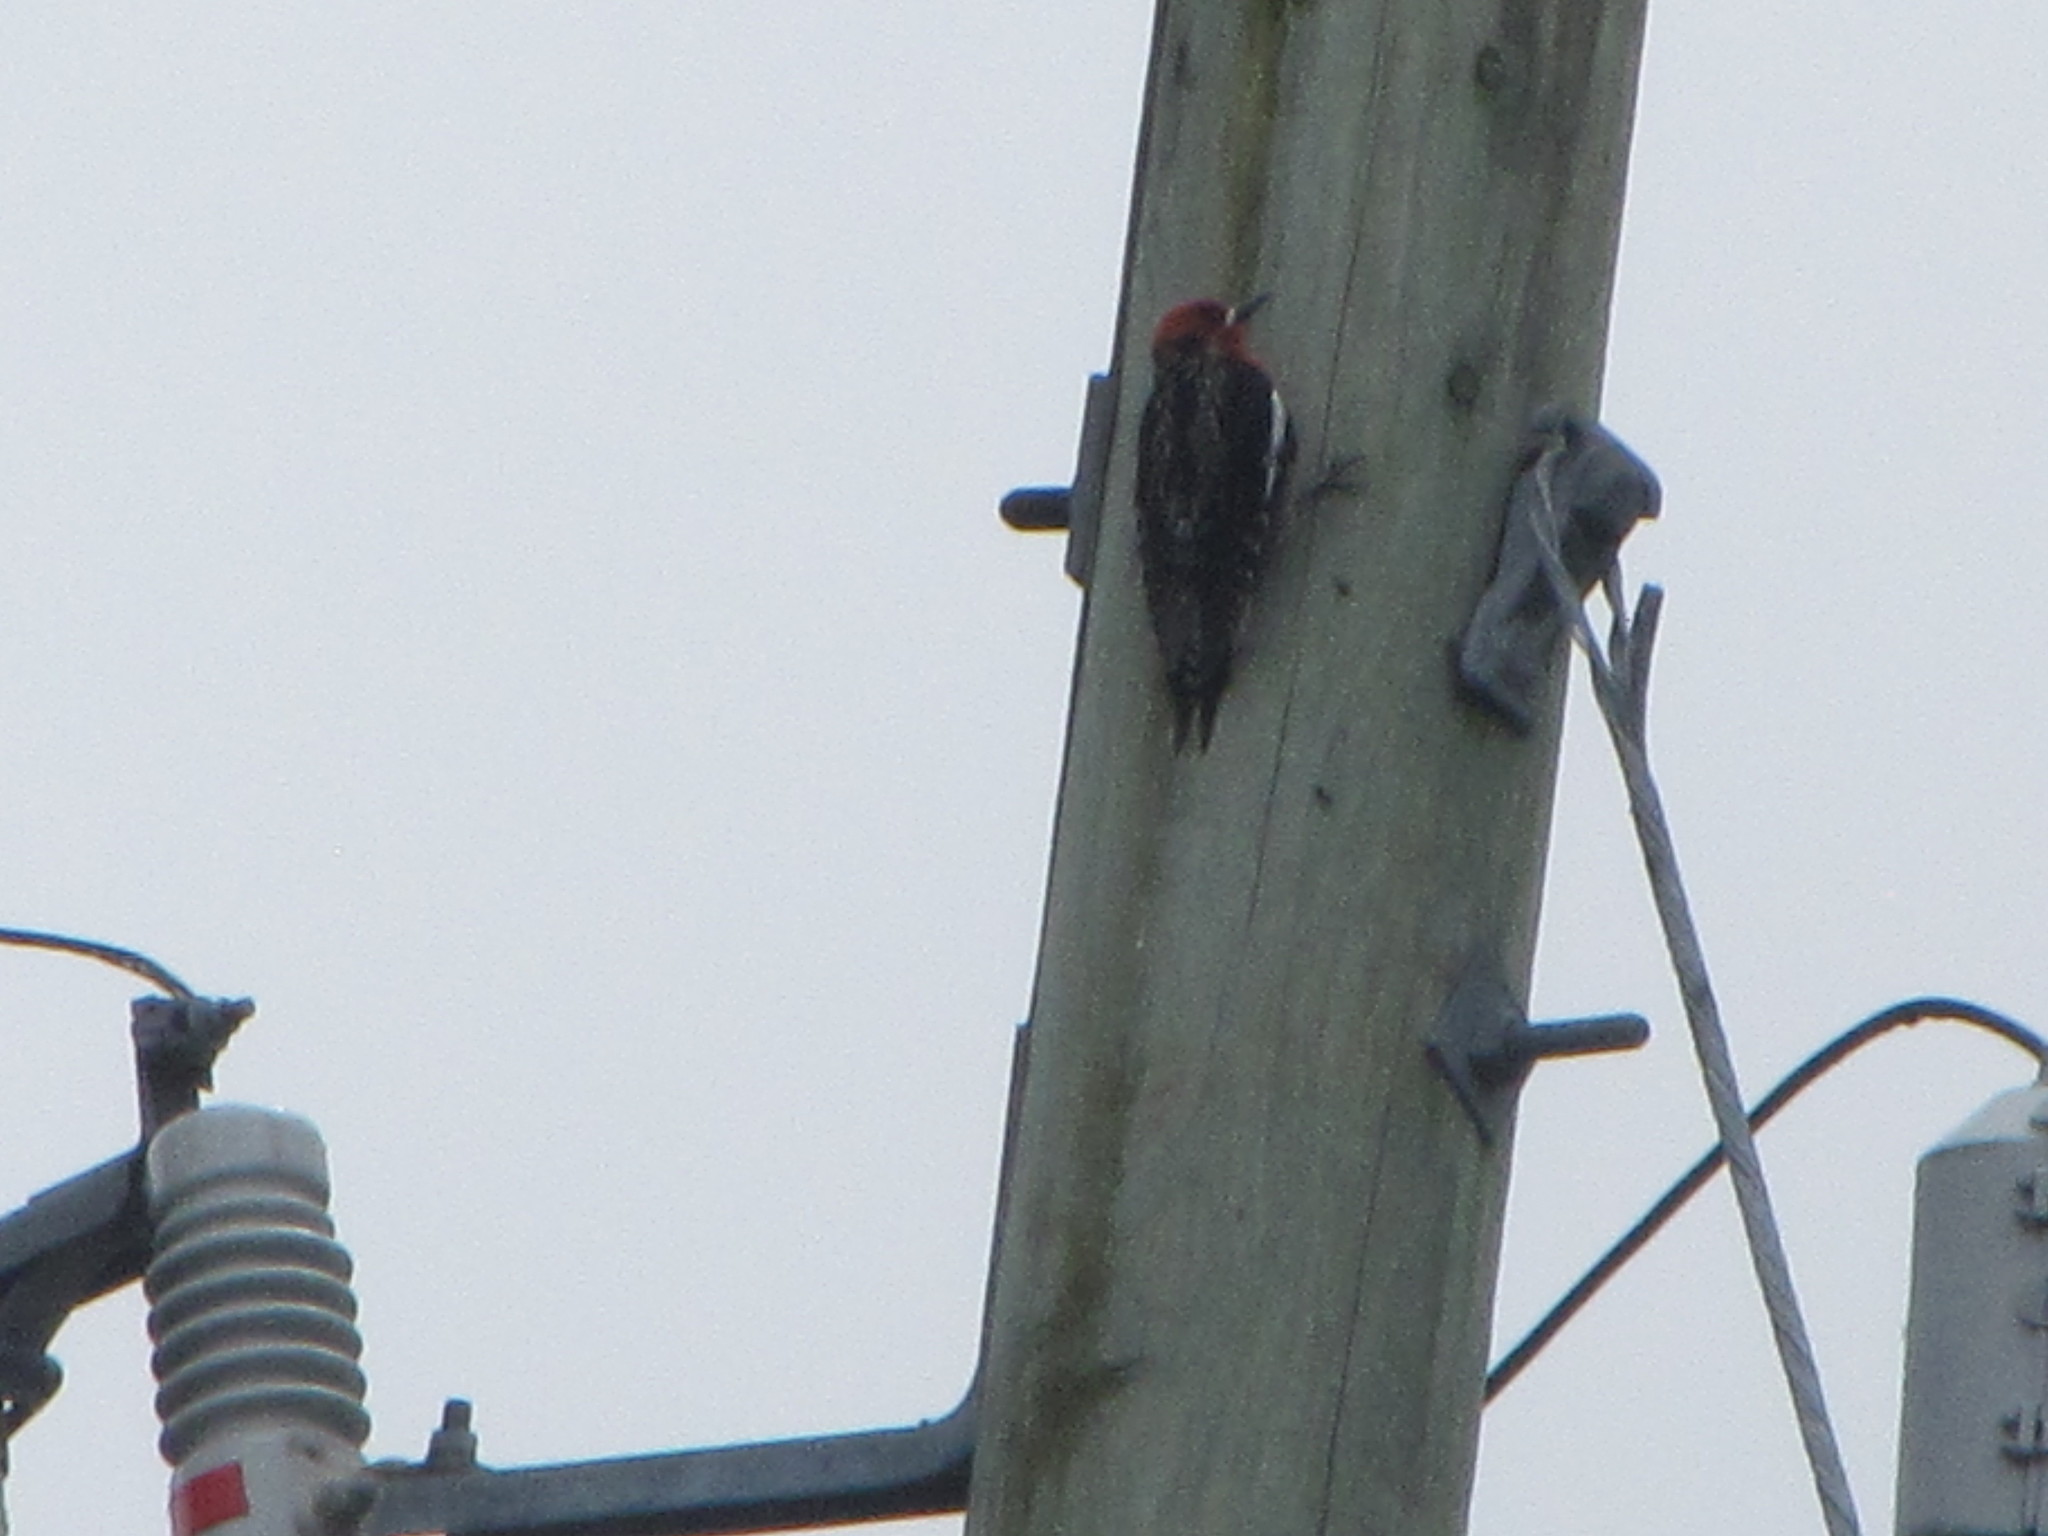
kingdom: Animalia
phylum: Chordata
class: Aves
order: Piciformes
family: Picidae
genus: Sphyrapicus
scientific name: Sphyrapicus ruber
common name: Red-breasted sapsucker
